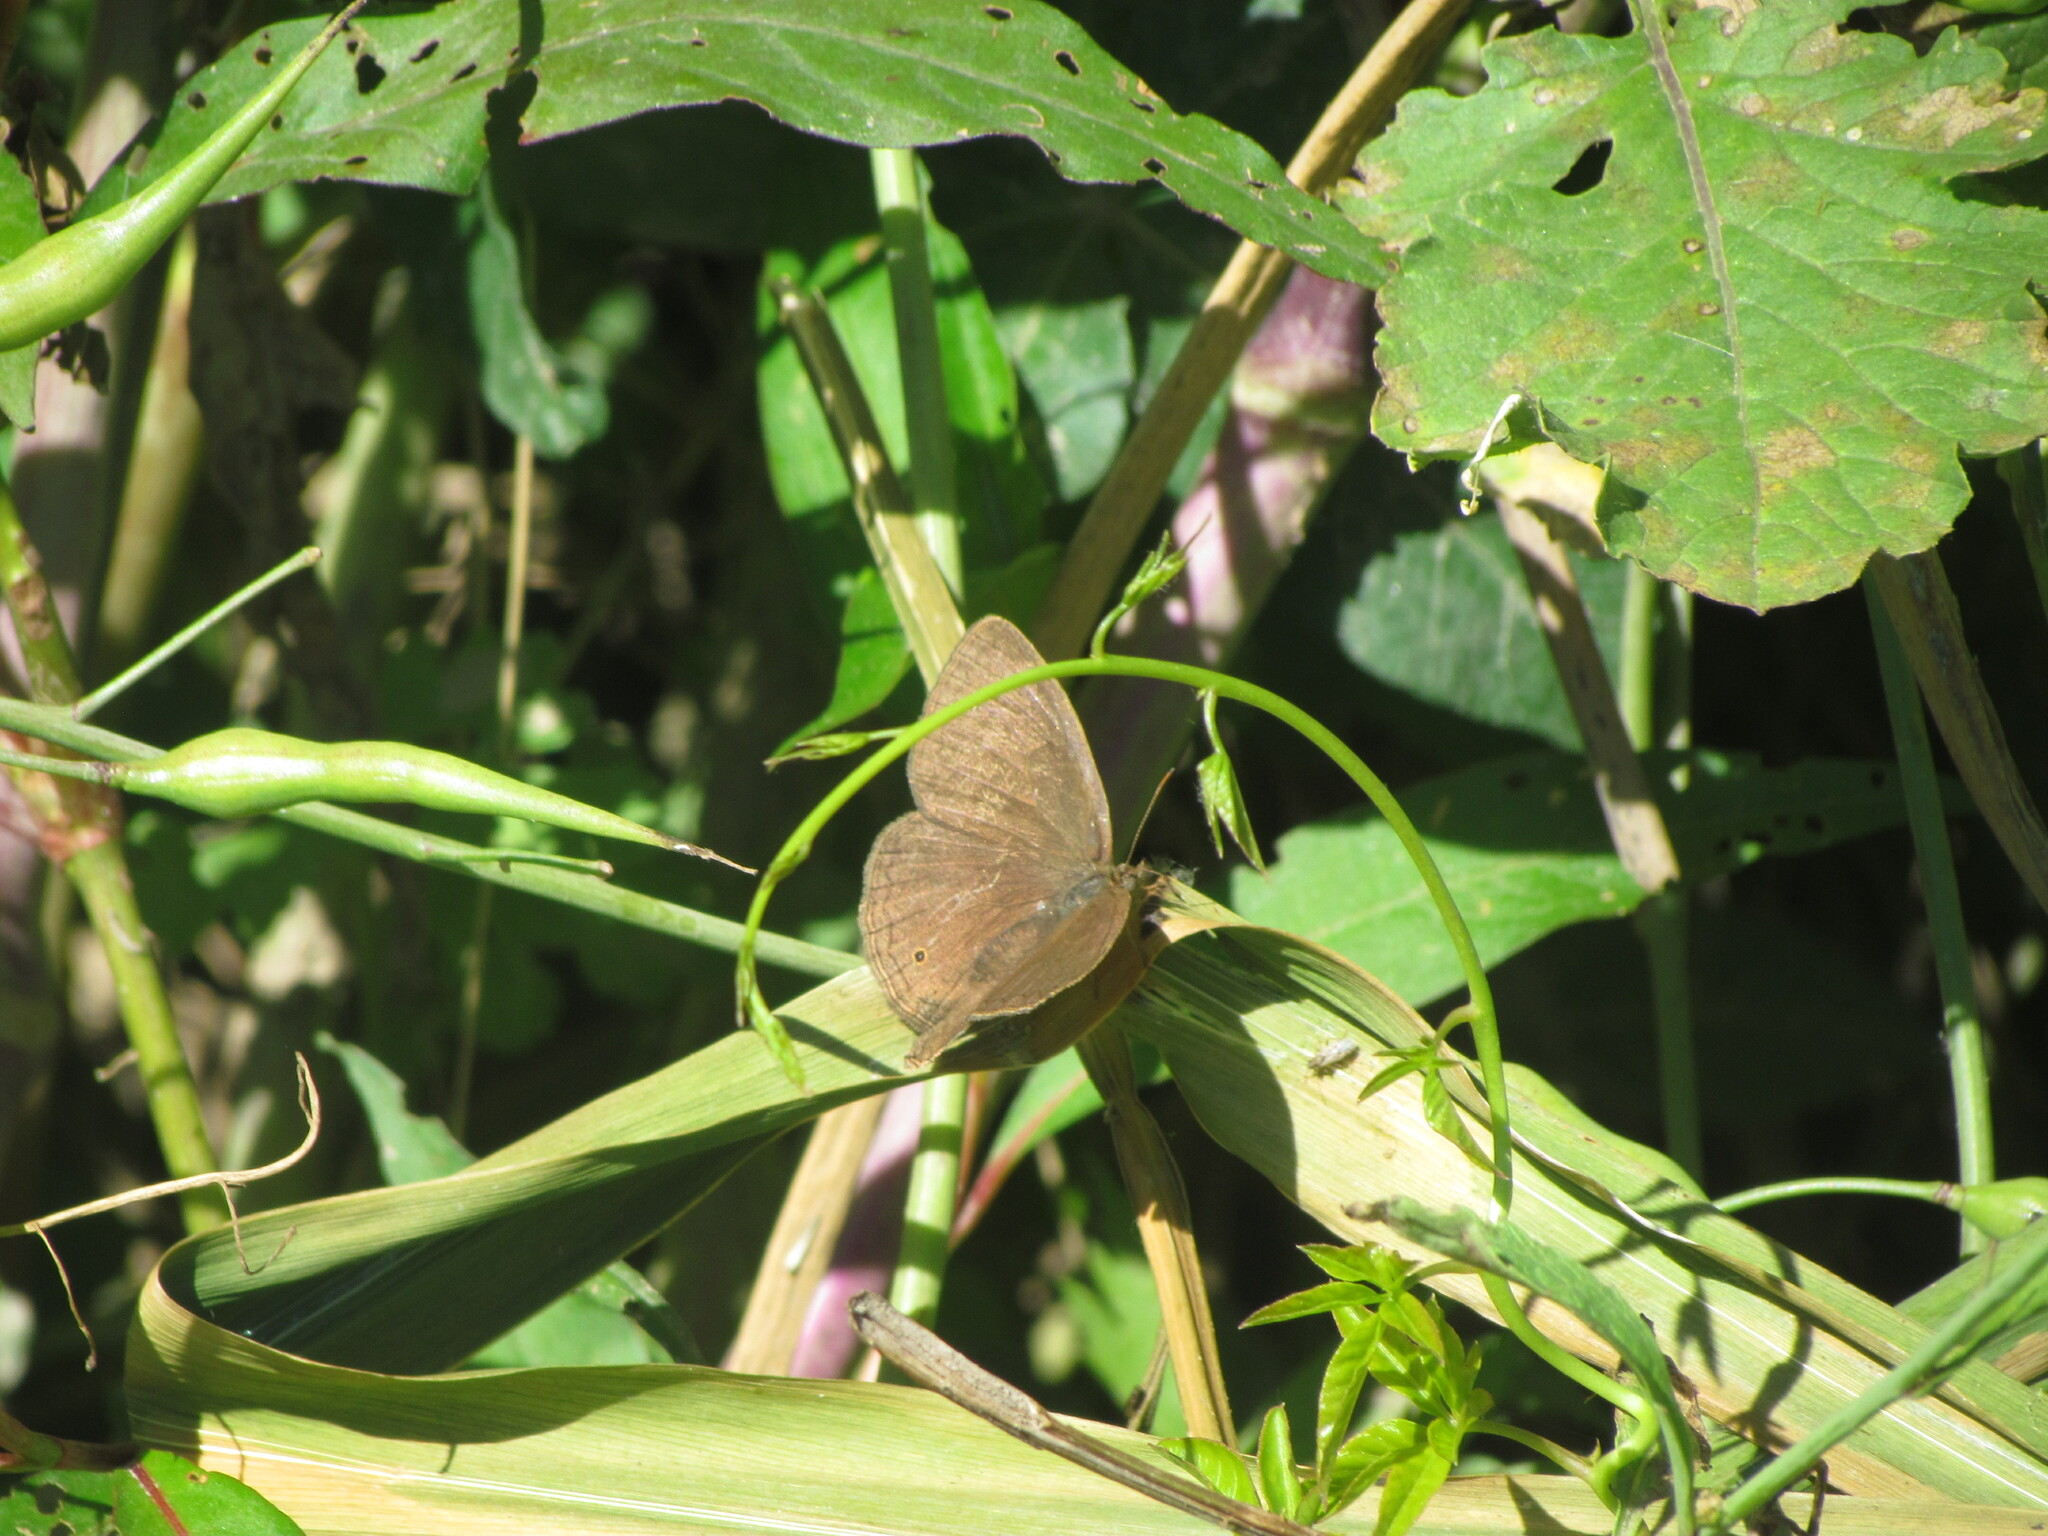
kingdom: Animalia
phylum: Arthropoda
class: Insecta
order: Lepidoptera
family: Nymphalidae
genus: Yphthimoides
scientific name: Yphthimoides celmis
